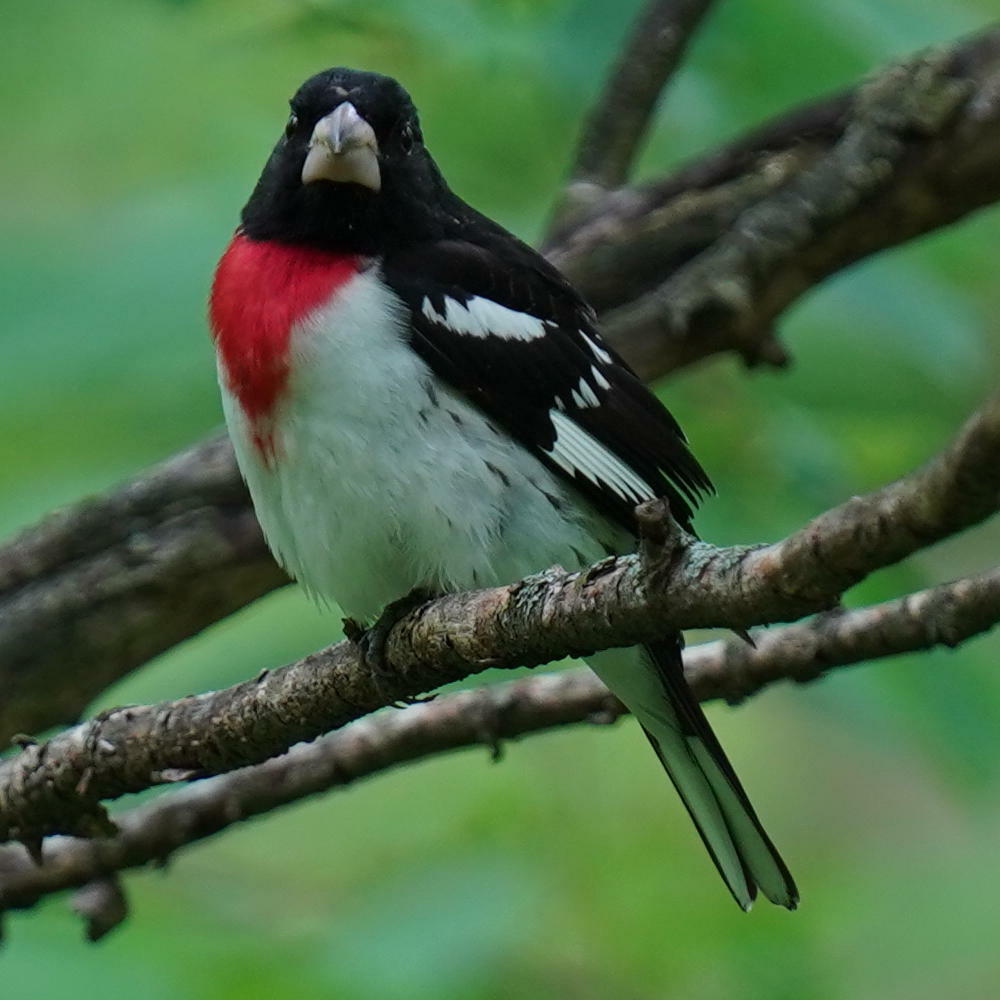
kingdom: Animalia
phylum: Chordata
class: Aves
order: Passeriformes
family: Cardinalidae
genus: Pheucticus
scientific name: Pheucticus ludovicianus
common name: Rose-breasted grosbeak
